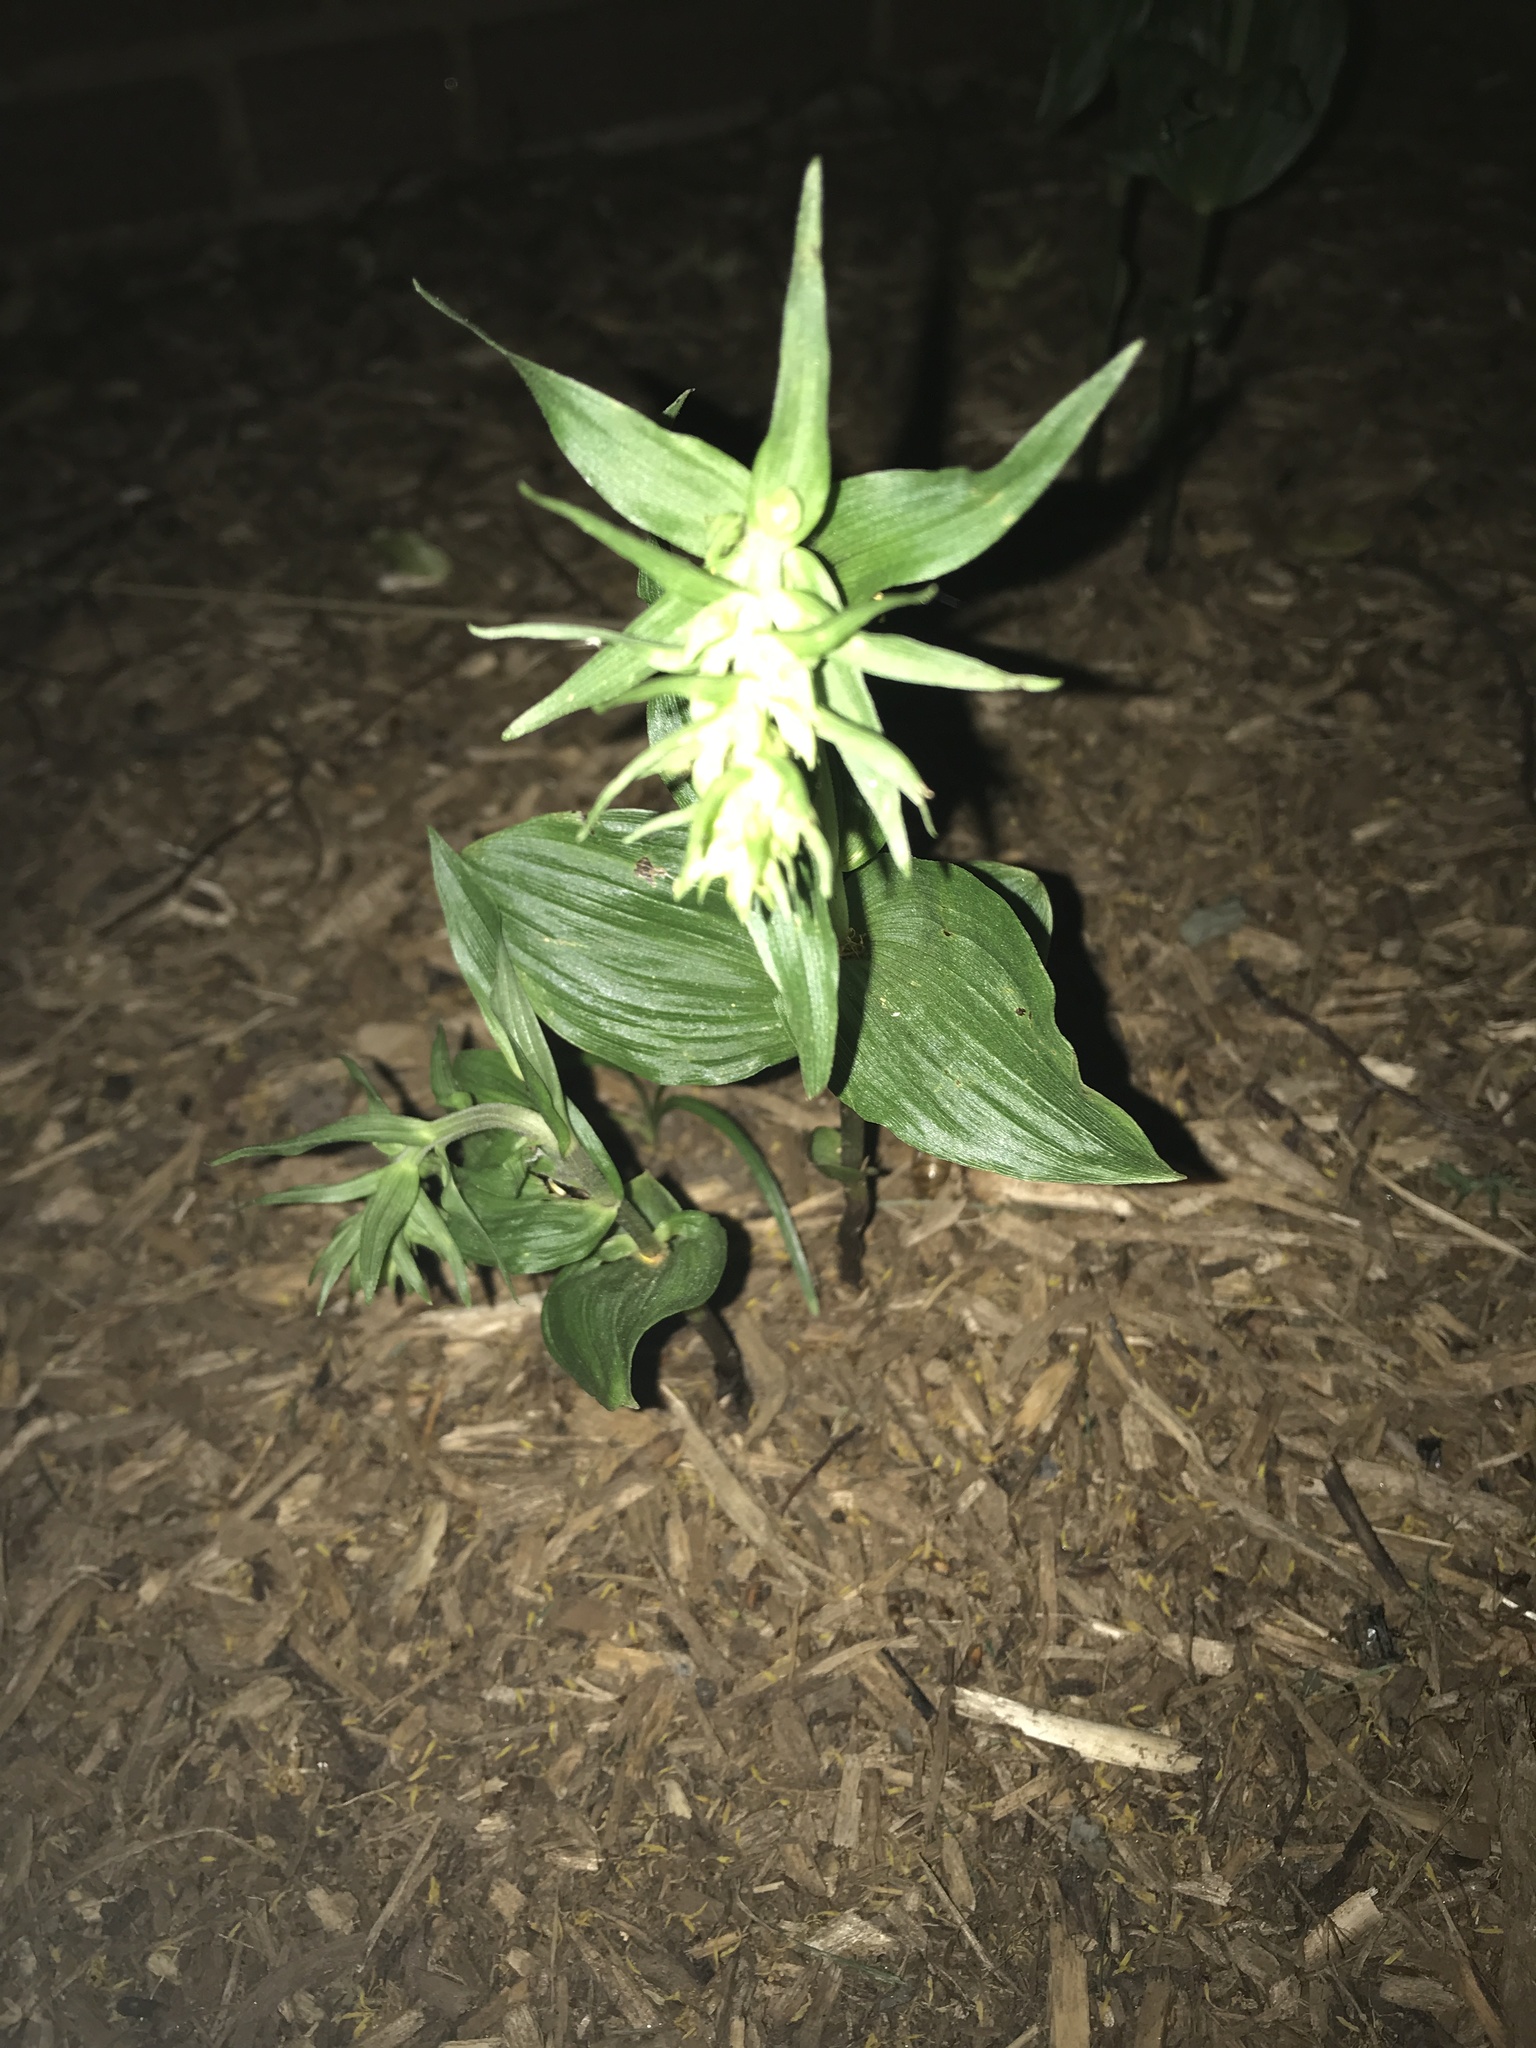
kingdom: Plantae
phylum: Tracheophyta
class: Liliopsida
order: Asparagales
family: Orchidaceae
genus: Epipactis
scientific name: Epipactis helleborine
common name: Broad-leaved helleborine
